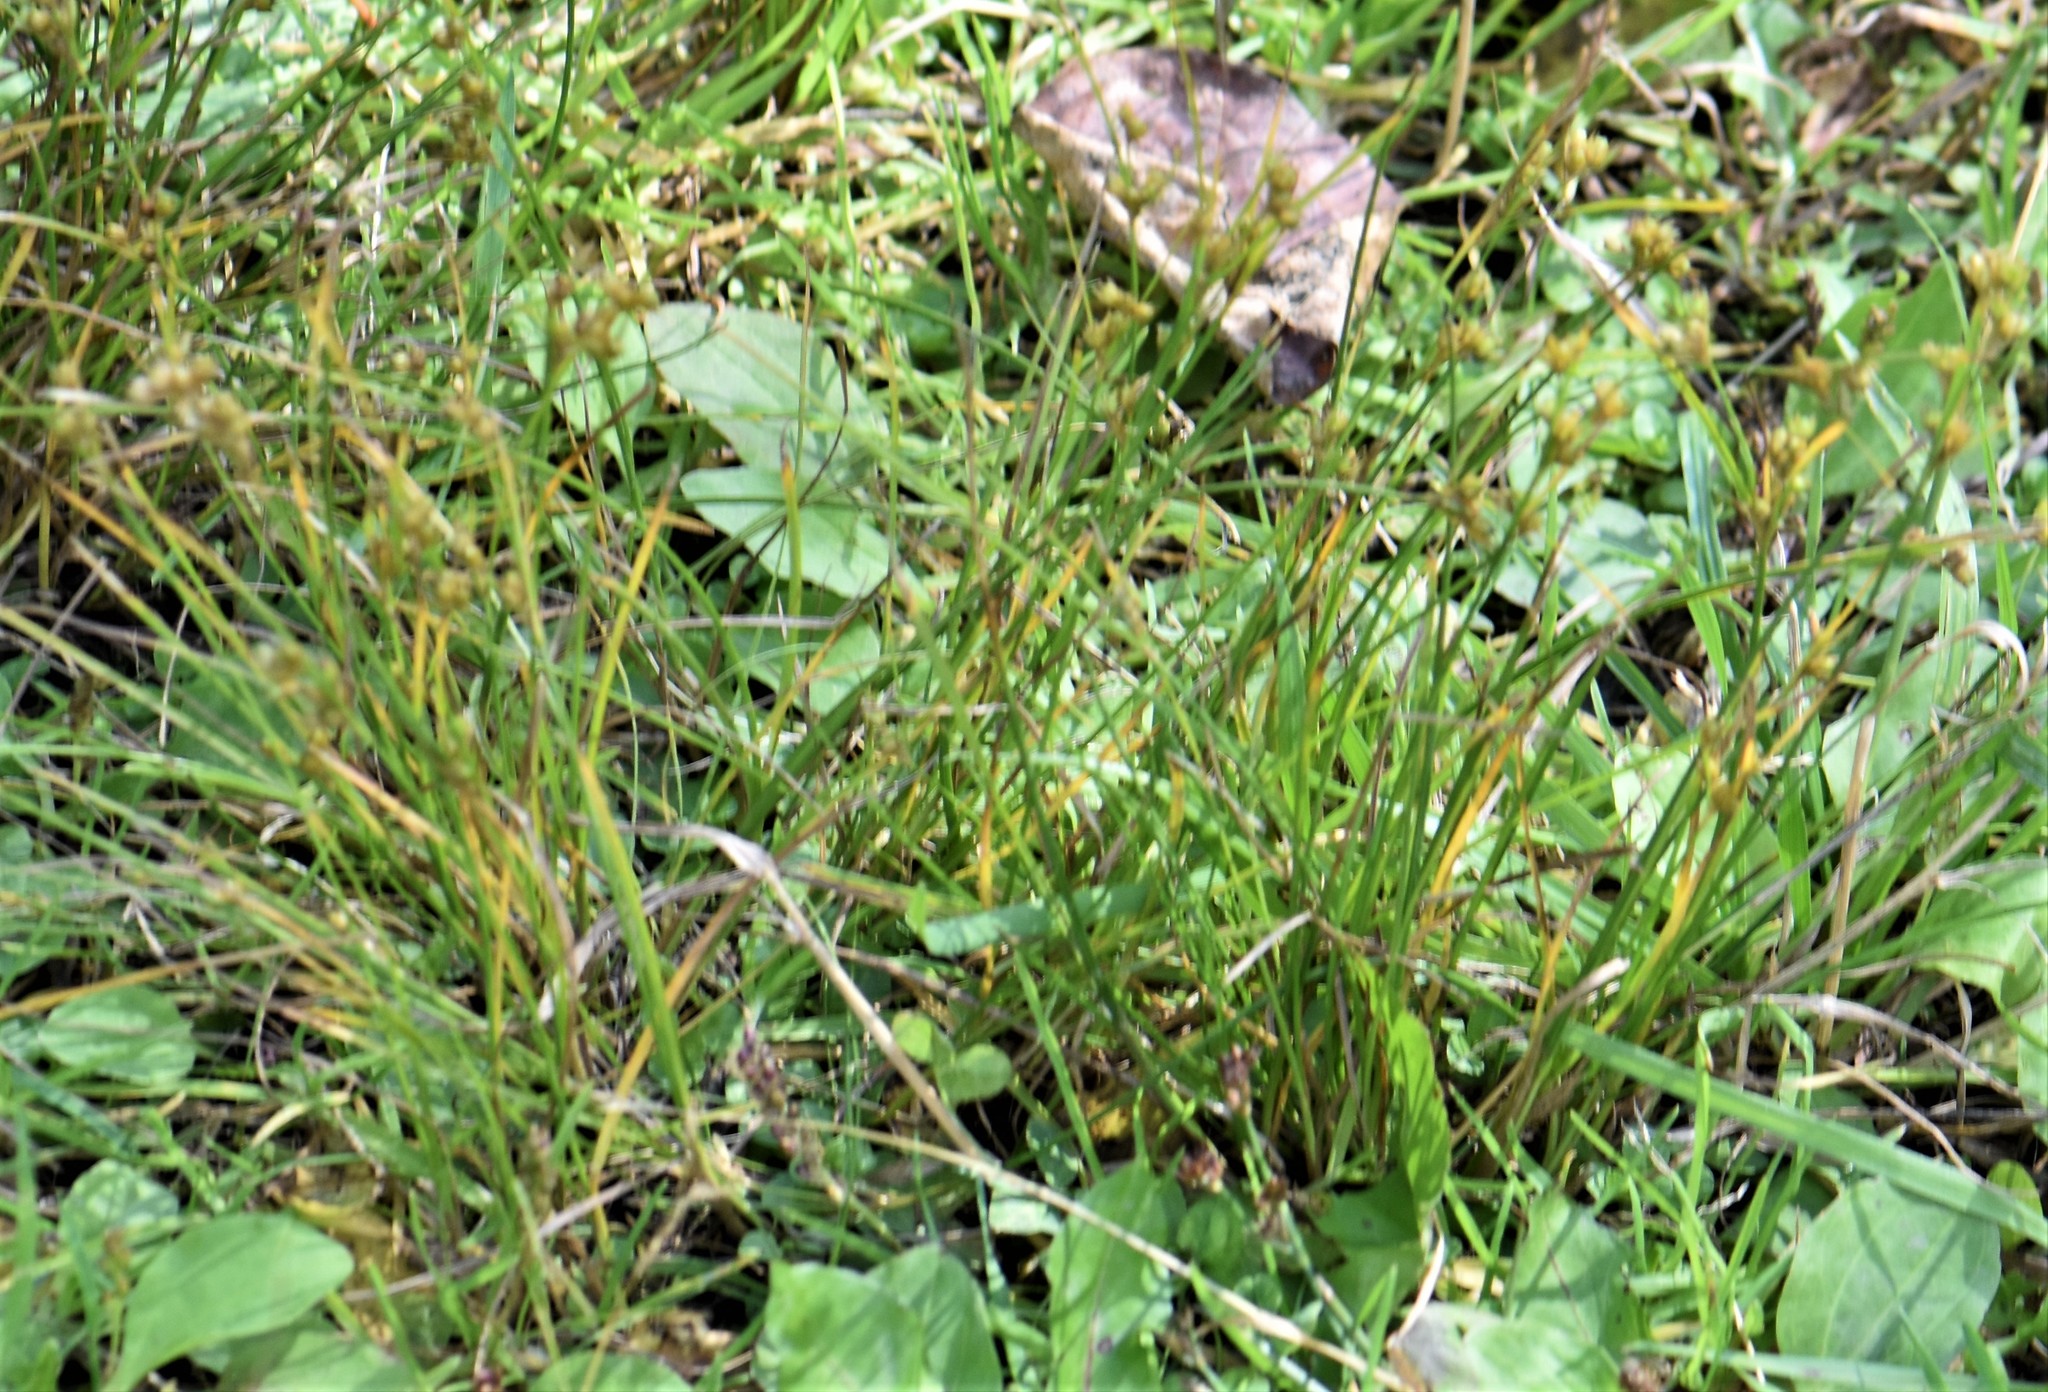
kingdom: Plantae
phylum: Tracheophyta
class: Liliopsida
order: Poales
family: Juncaceae
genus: Juncus
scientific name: Juncus tenuis
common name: Slender rush
